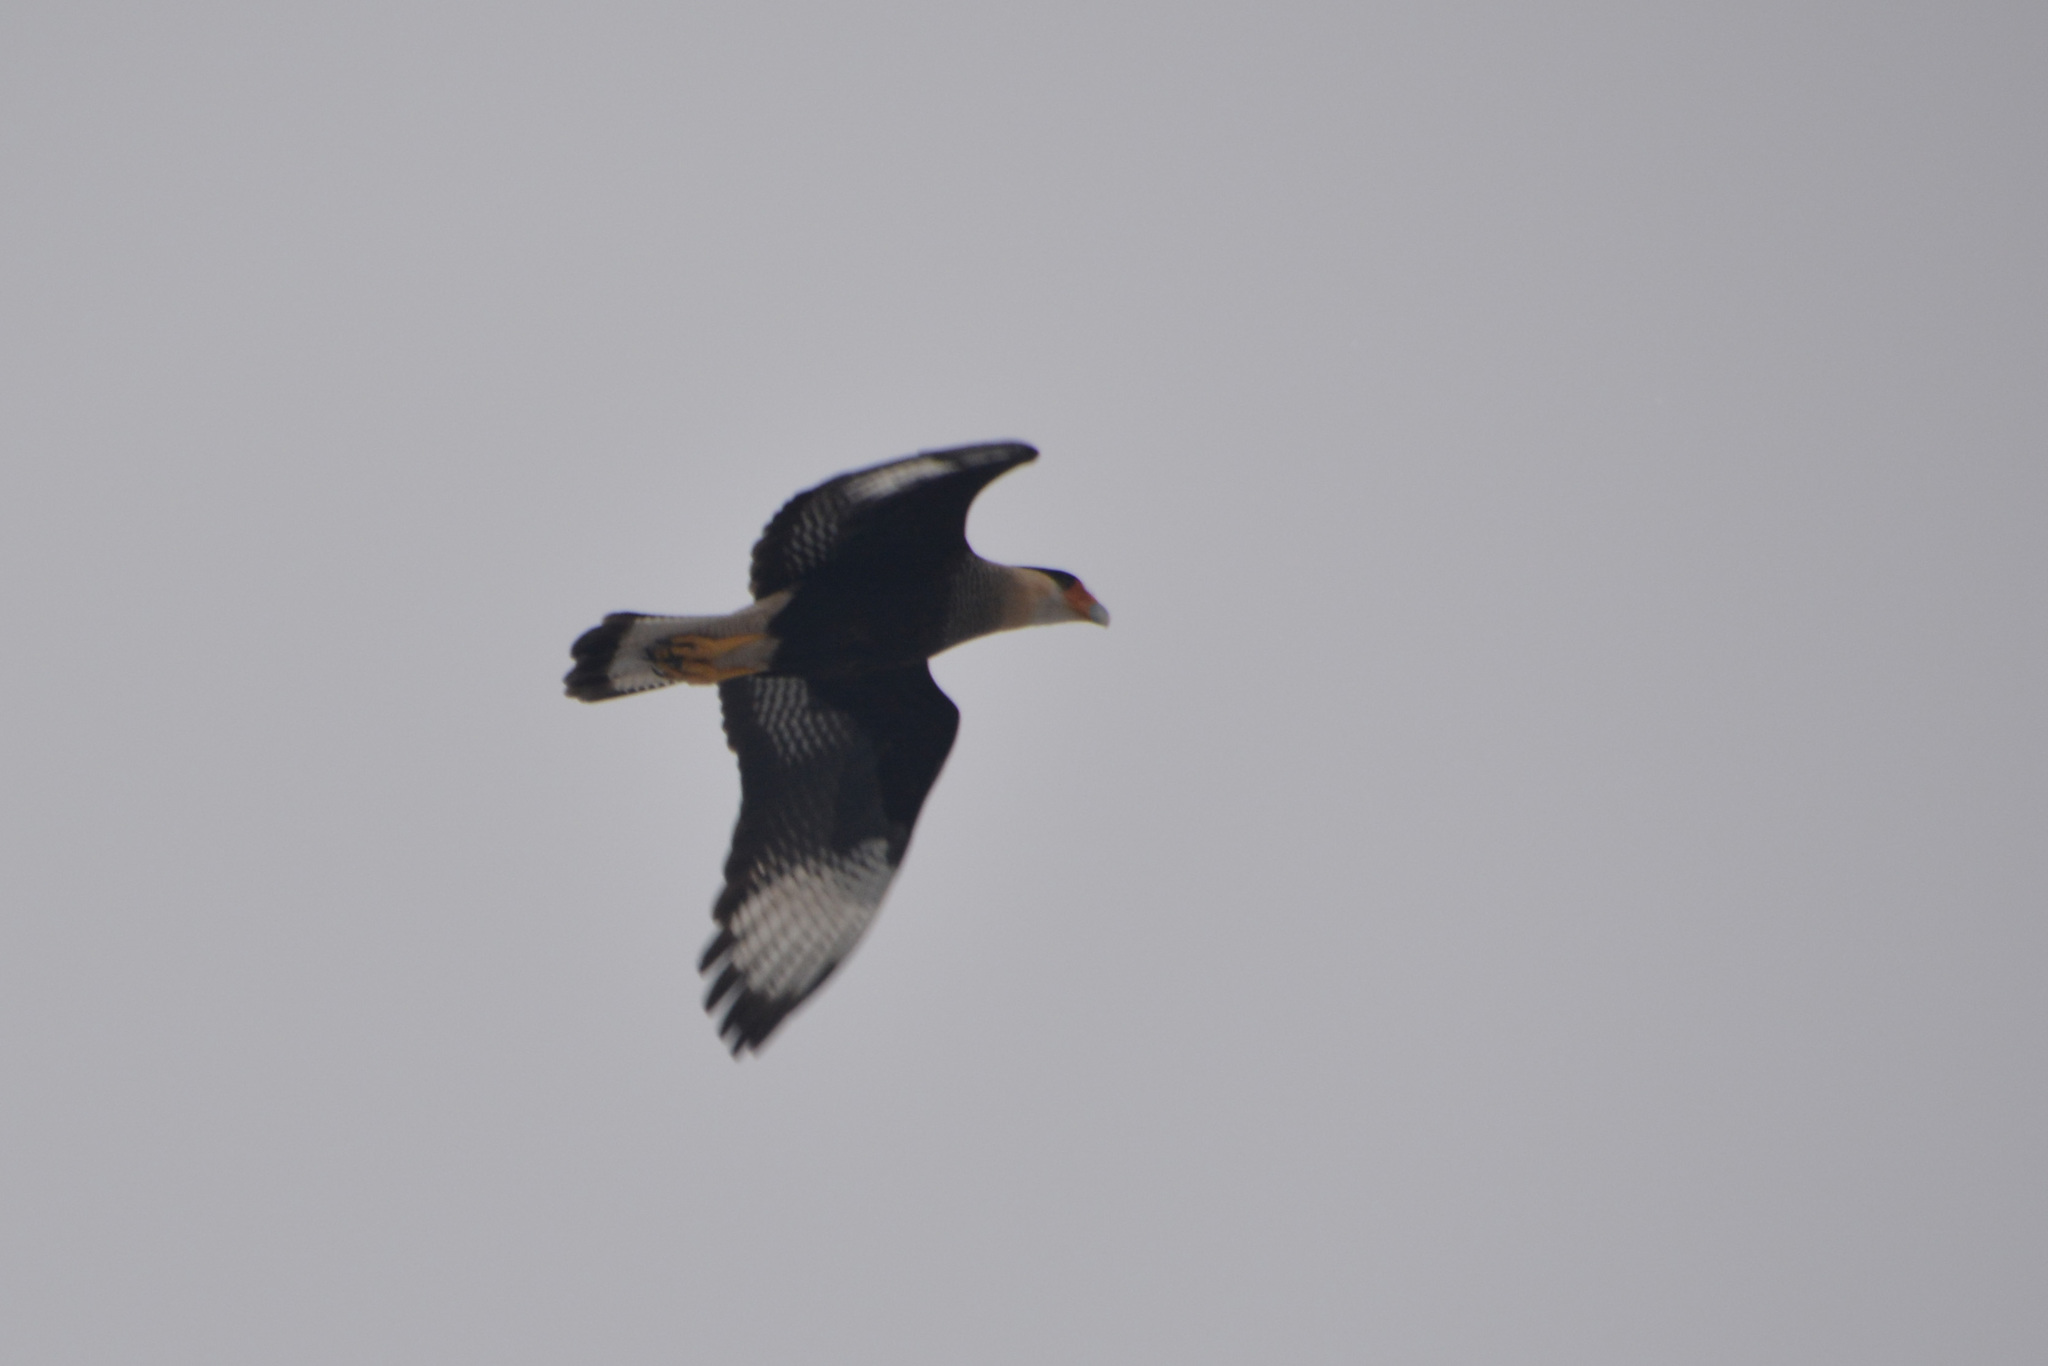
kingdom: Animalia
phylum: Chordata
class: Aves
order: Falconiformes
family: Falconidae
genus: Caracara
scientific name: Caracara plancus
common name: Southern caracara
